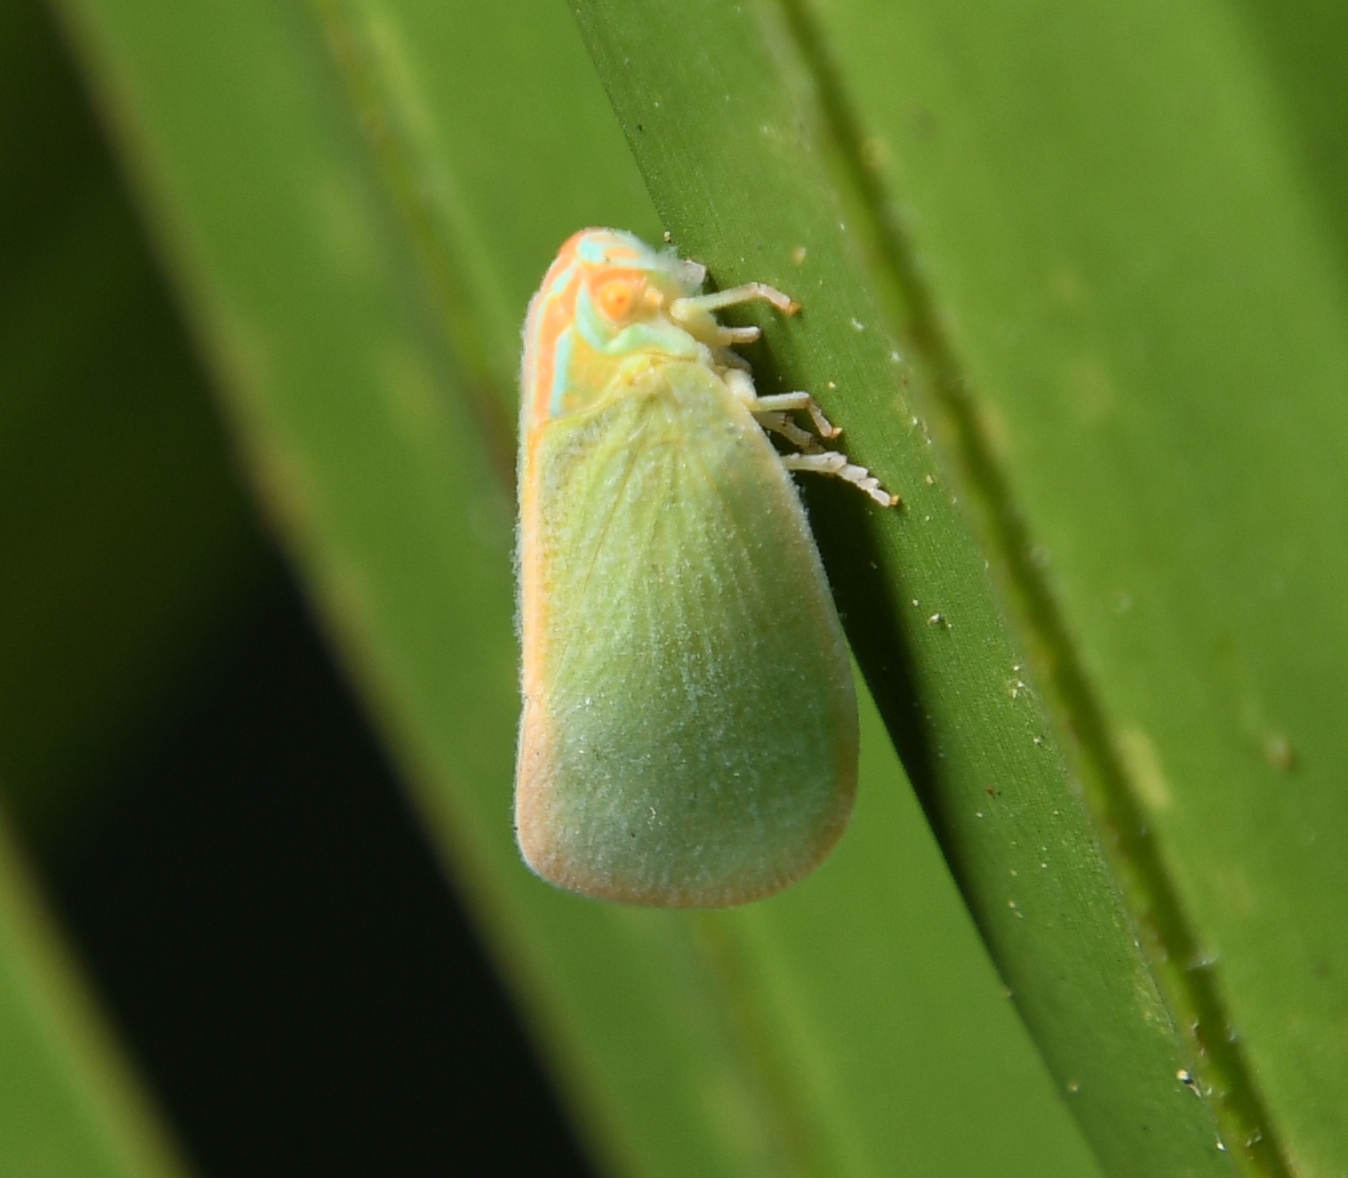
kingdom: Animalia
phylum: Arthropoda
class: Insecta
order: Hemiptera
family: Flatidae
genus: Ormenaria
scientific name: Ormenaria rufifascia
